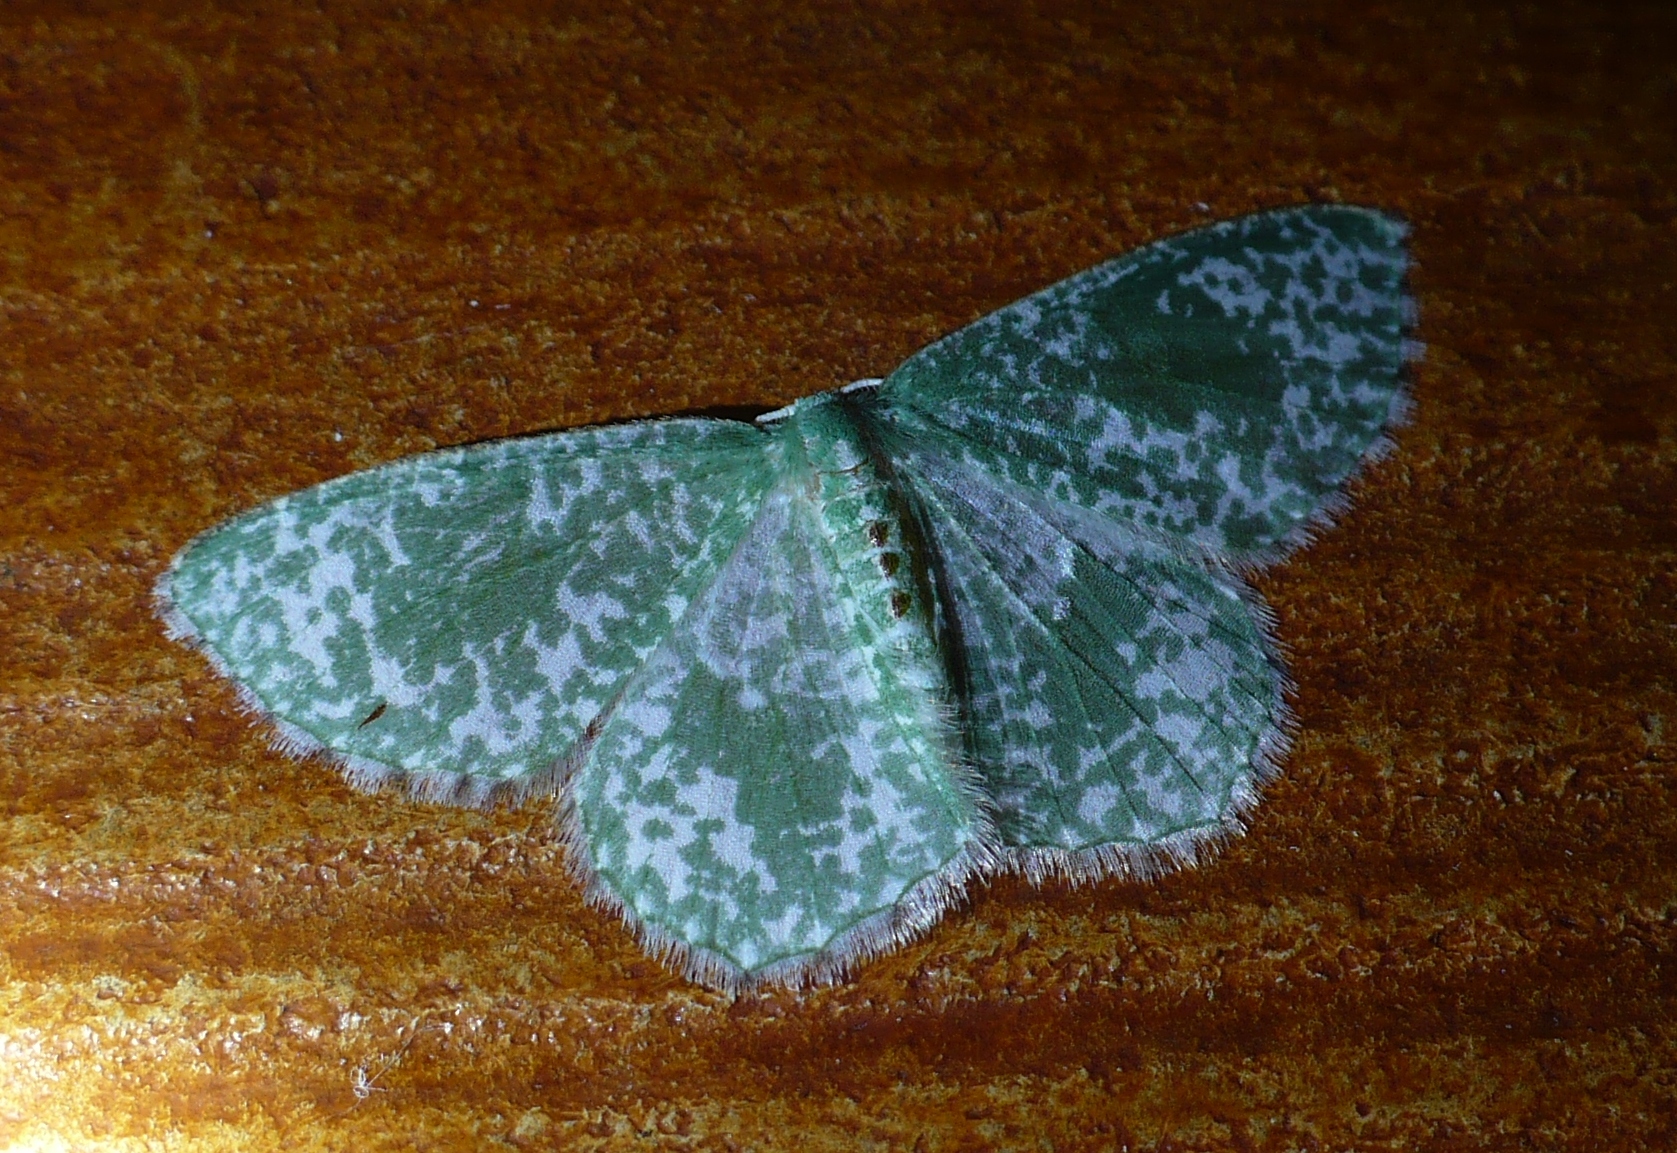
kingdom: Animalia
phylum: Arthropoda
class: Insecta
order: Lepidoptera
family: Geometridae
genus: Oospila
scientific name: Oospila stagonata
